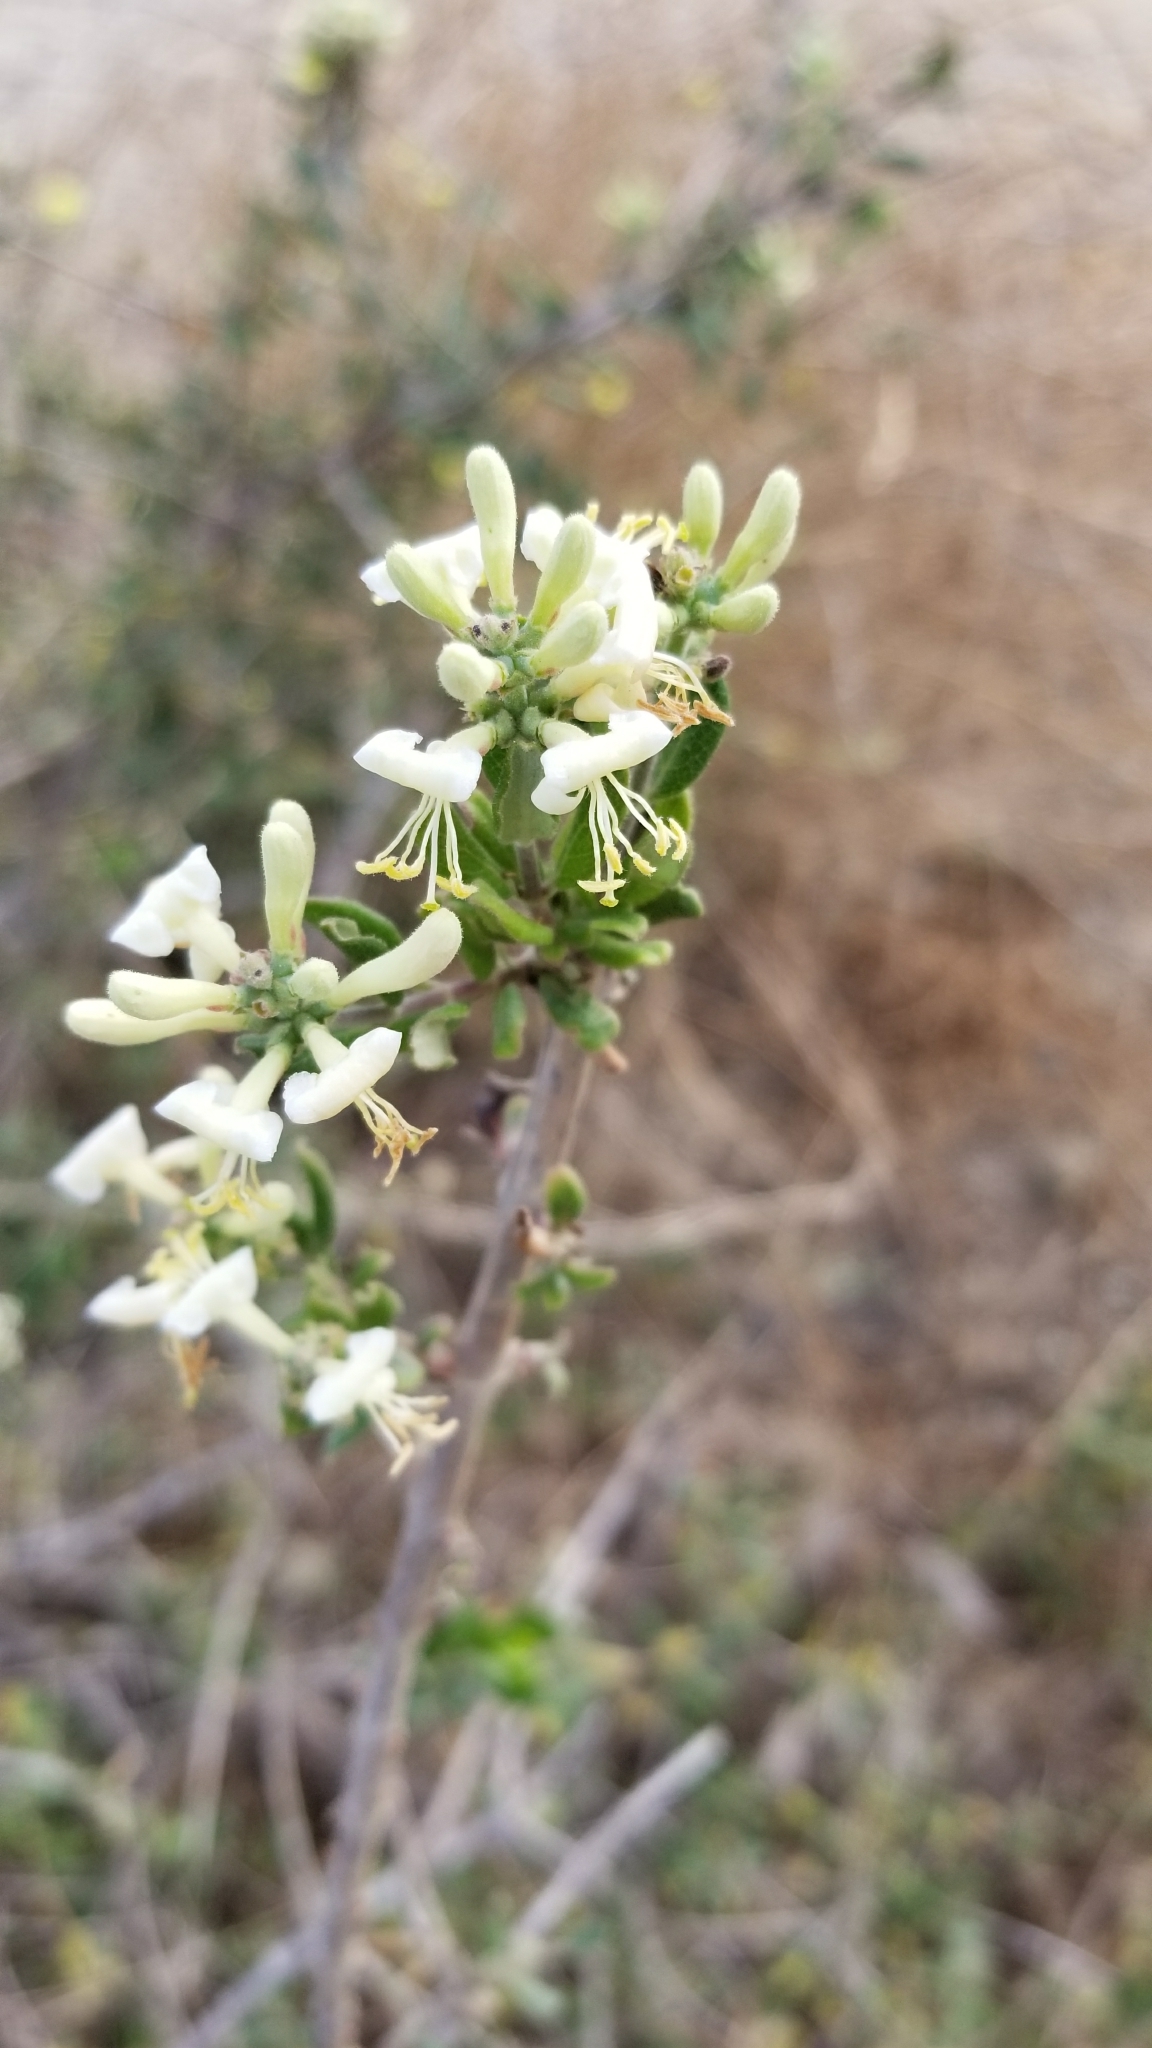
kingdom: Plantae
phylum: Tracheophyta
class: Magnoliopsida
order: Dipsacales
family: Caprifoliaceae
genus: Lonicera
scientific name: Lonicera subspicata
